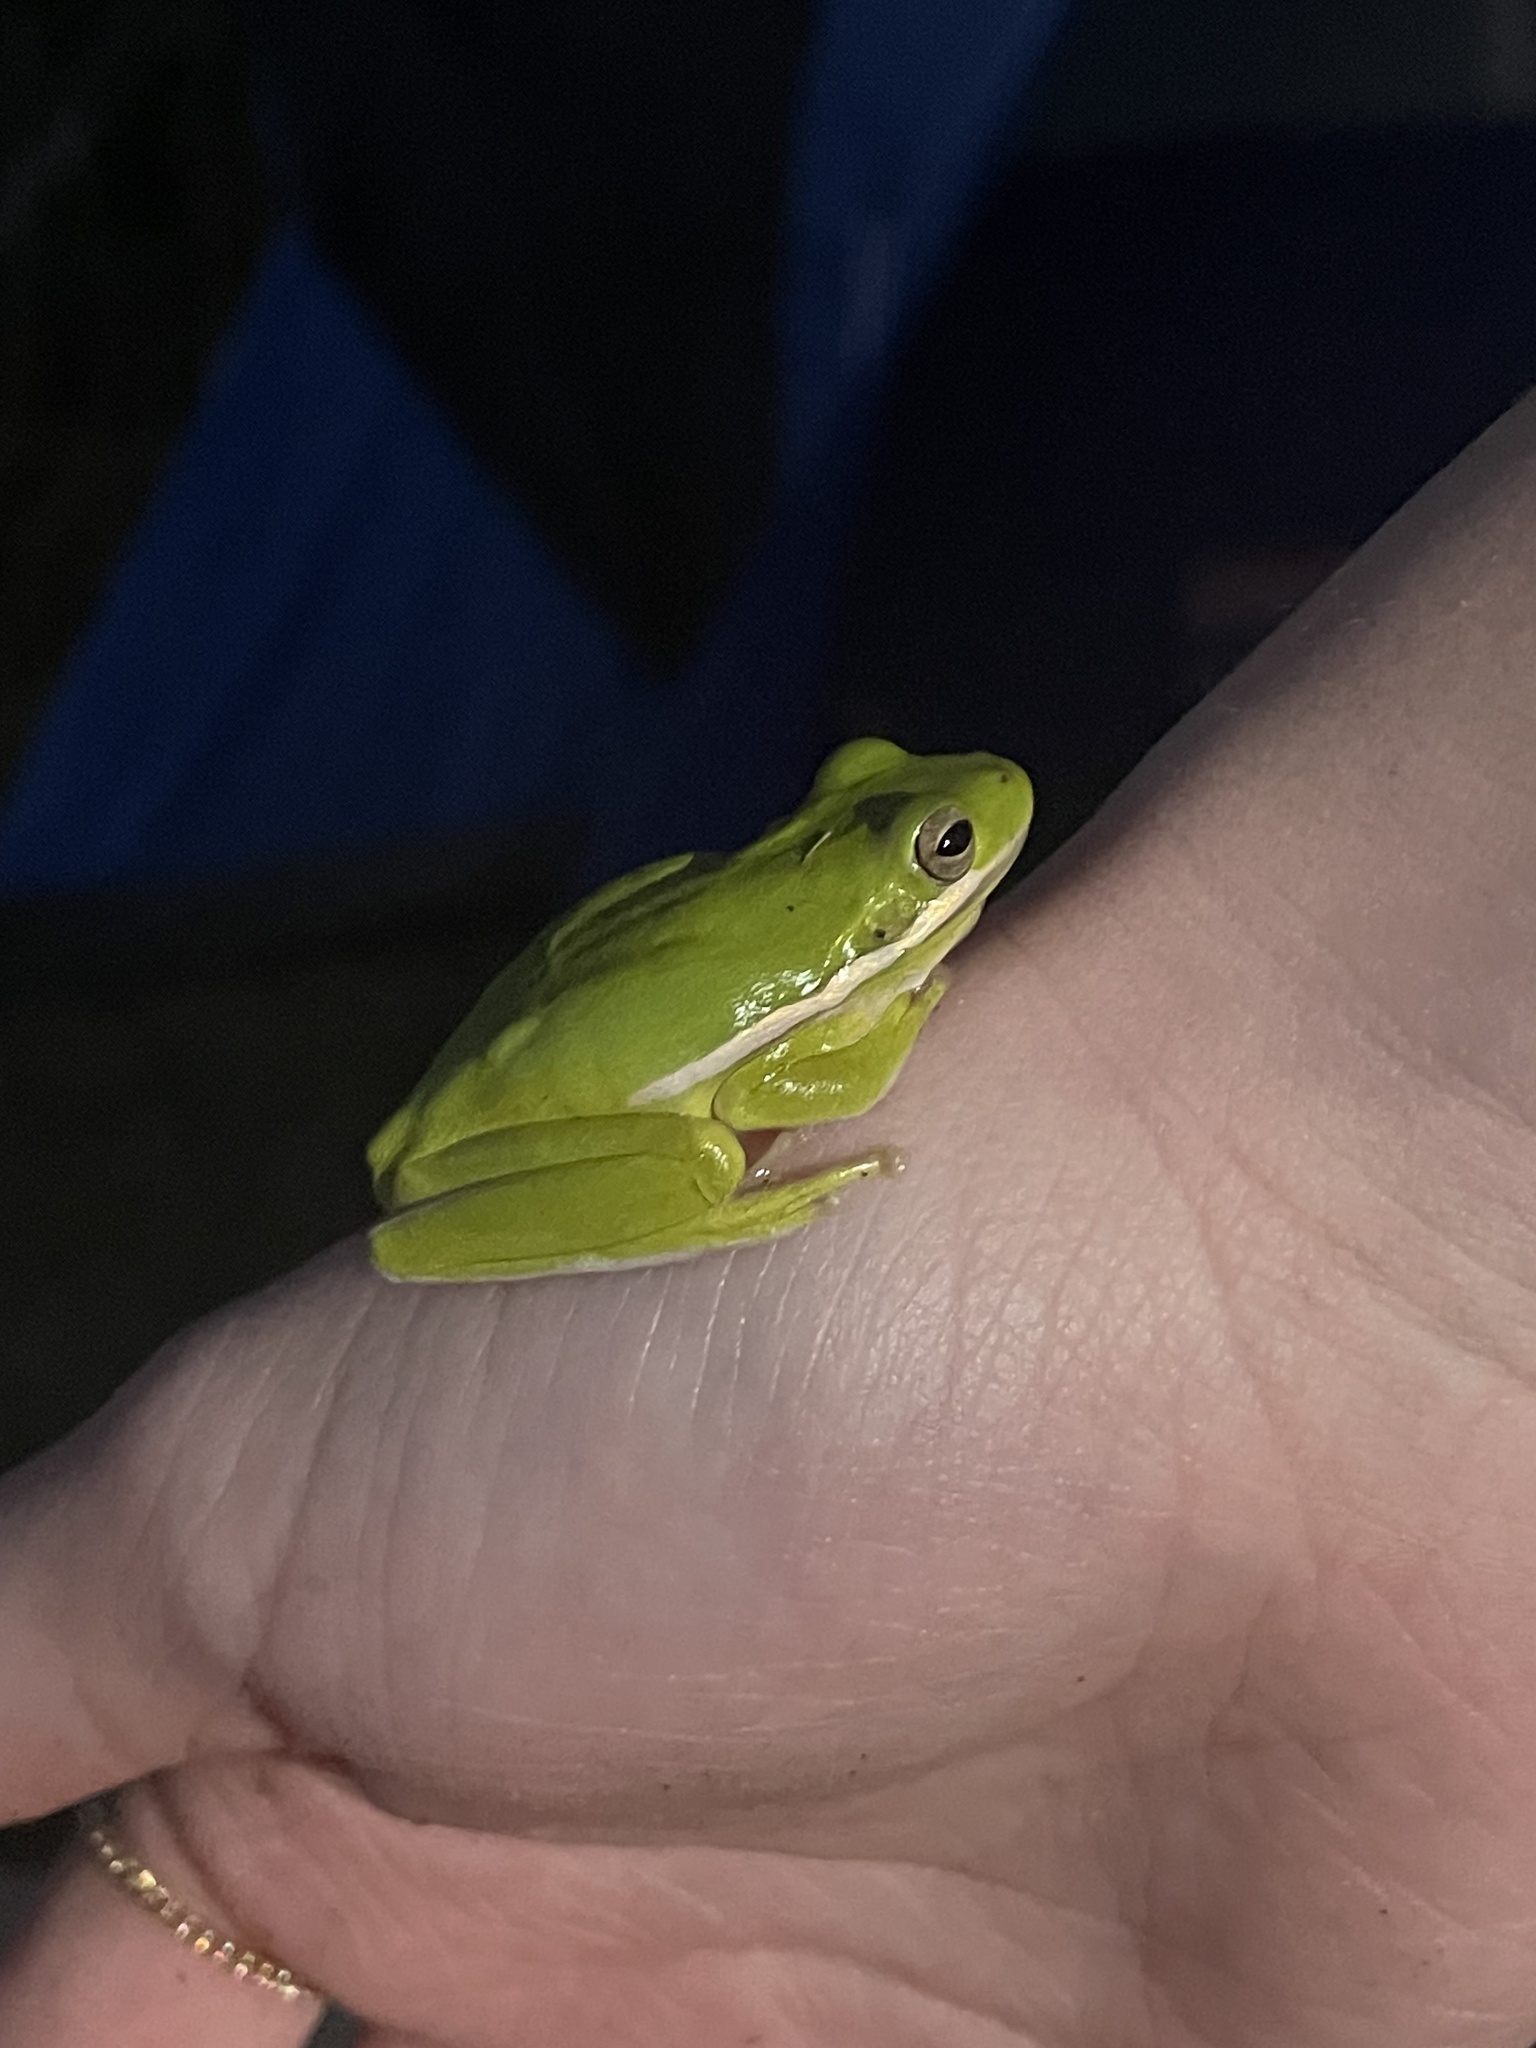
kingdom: Animalia
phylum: Chordata
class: Amphibia
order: Anura
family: Hylidae
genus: Dryophytes
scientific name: Dryophytes cinereus
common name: Green treefrog
